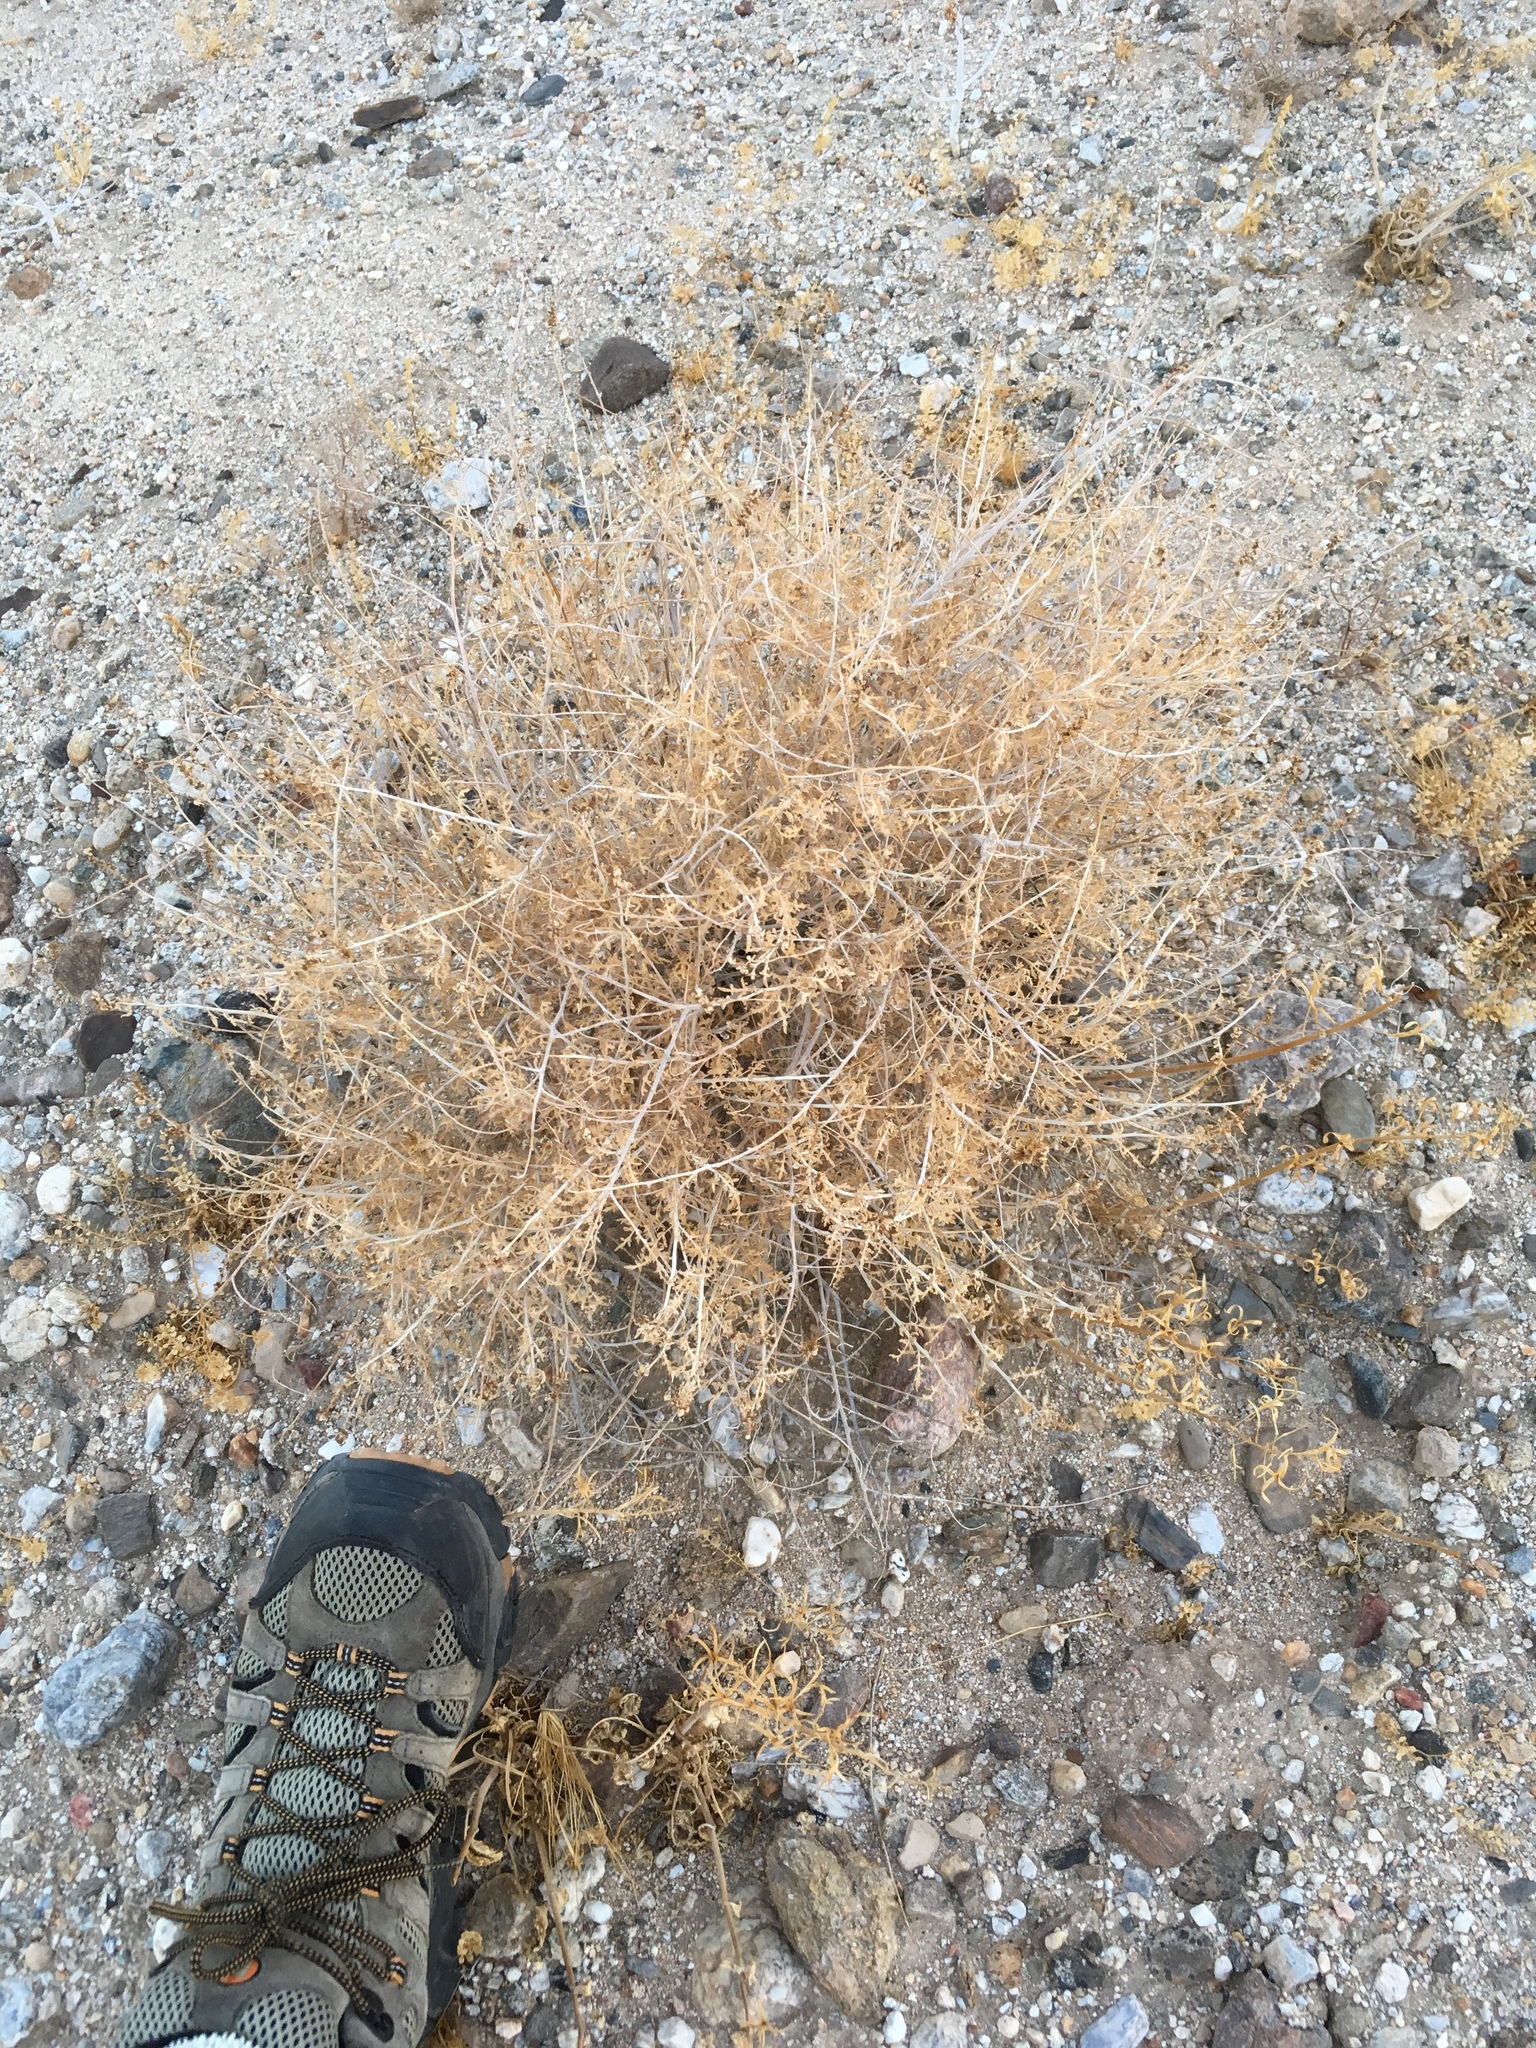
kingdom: Plantae
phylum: Tracheophyta
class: Magnoliopsida
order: Asterales
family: Asteraceae
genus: Ambrosia
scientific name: Ambrosia dumosa
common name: Bur-sage
